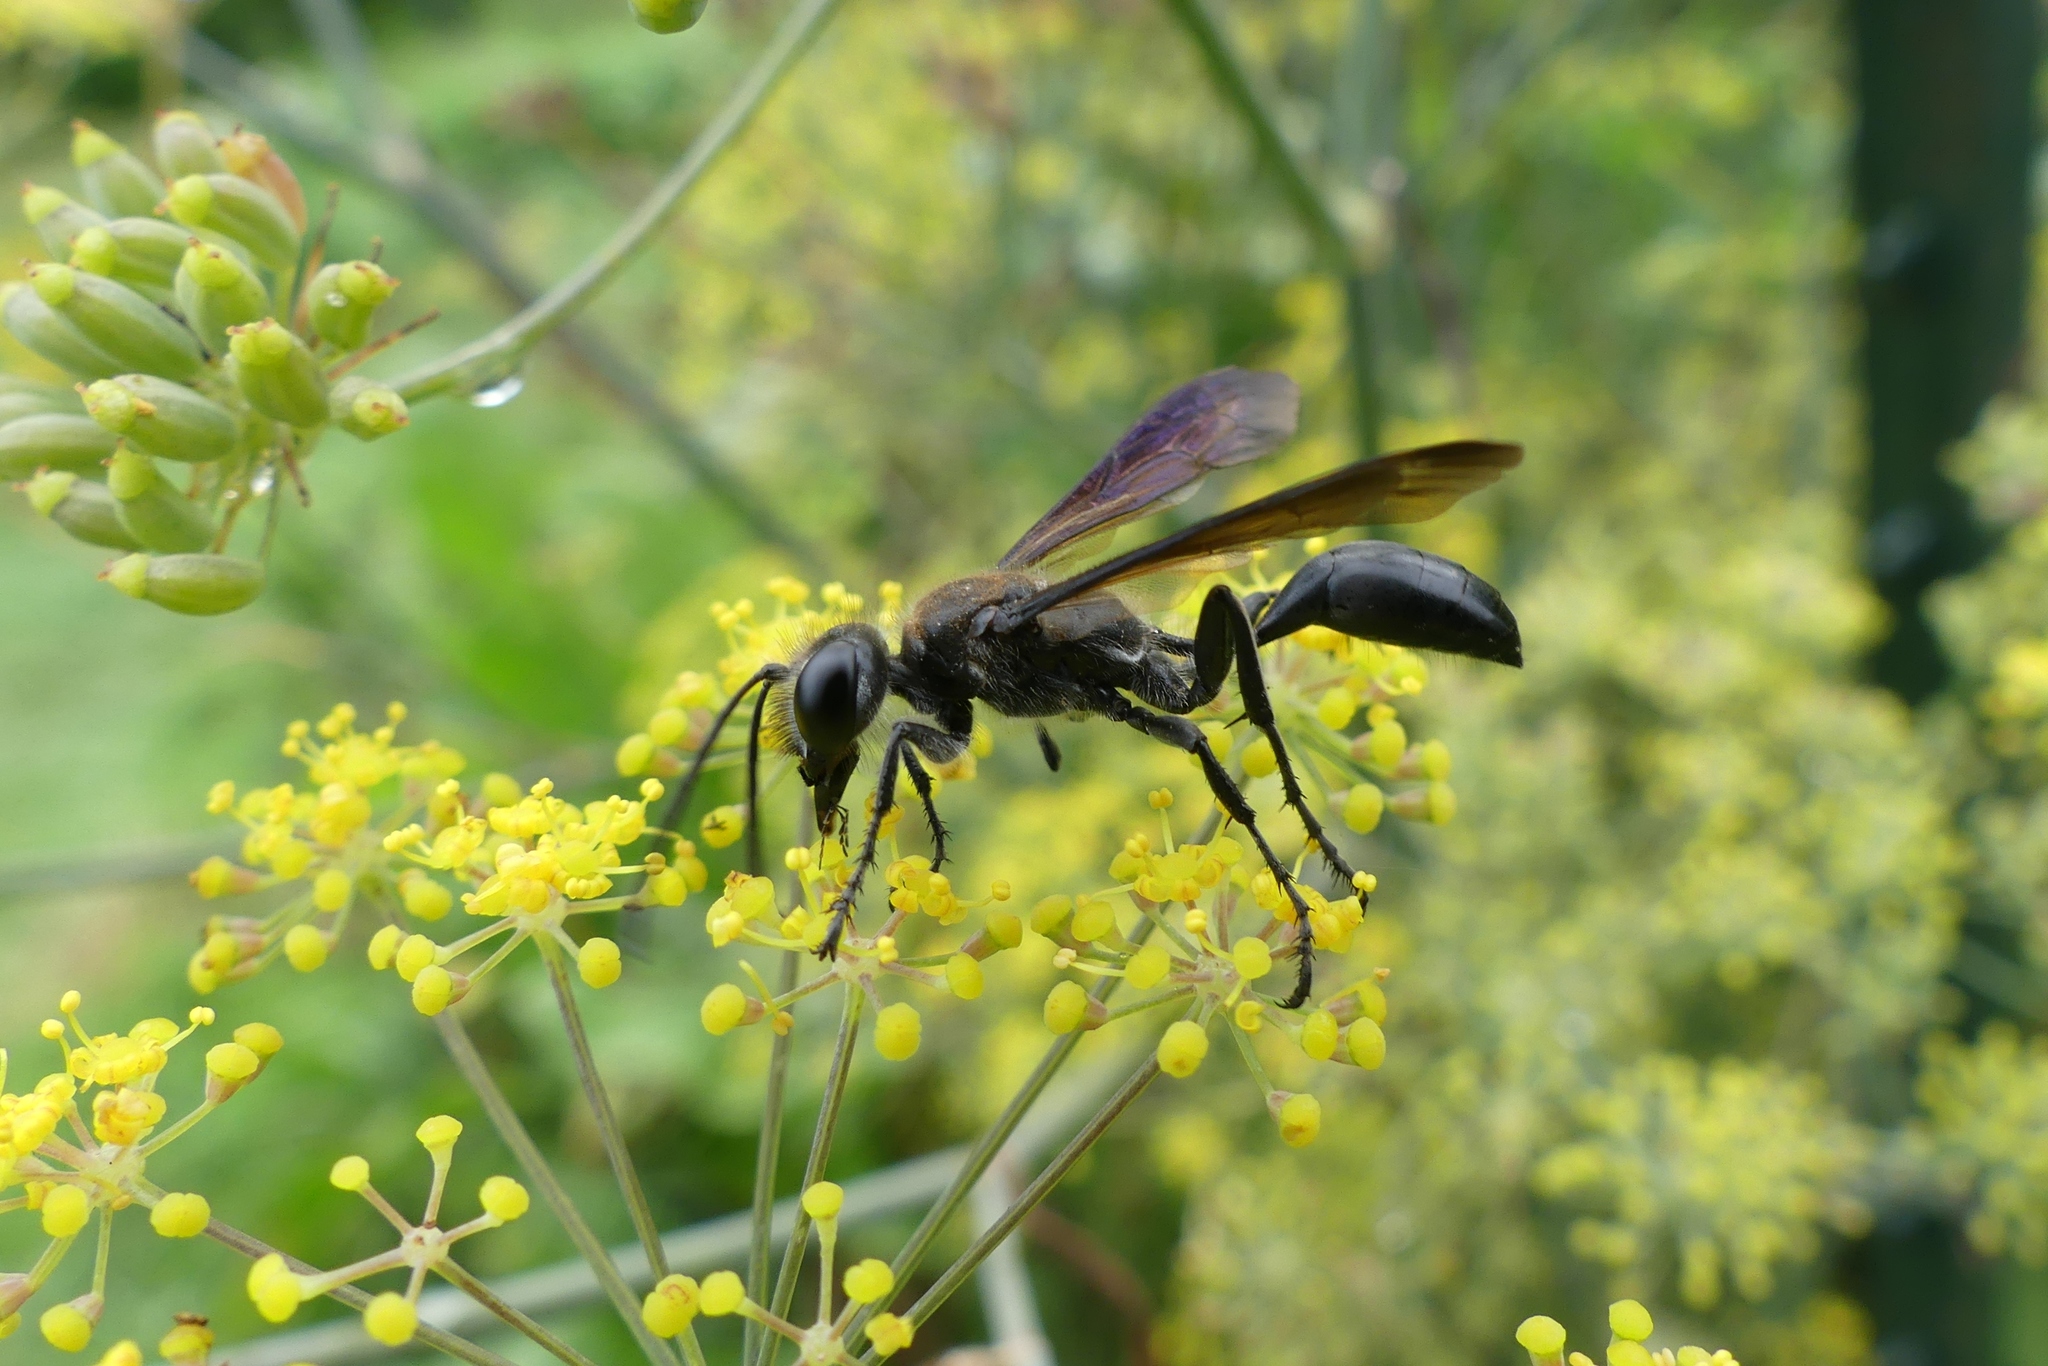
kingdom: Animalia
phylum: Arthropoda
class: Insecta
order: Hymenoptera
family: Sphecidae
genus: Isodontia
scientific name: Isodontia mexicana
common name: Mud dauber
